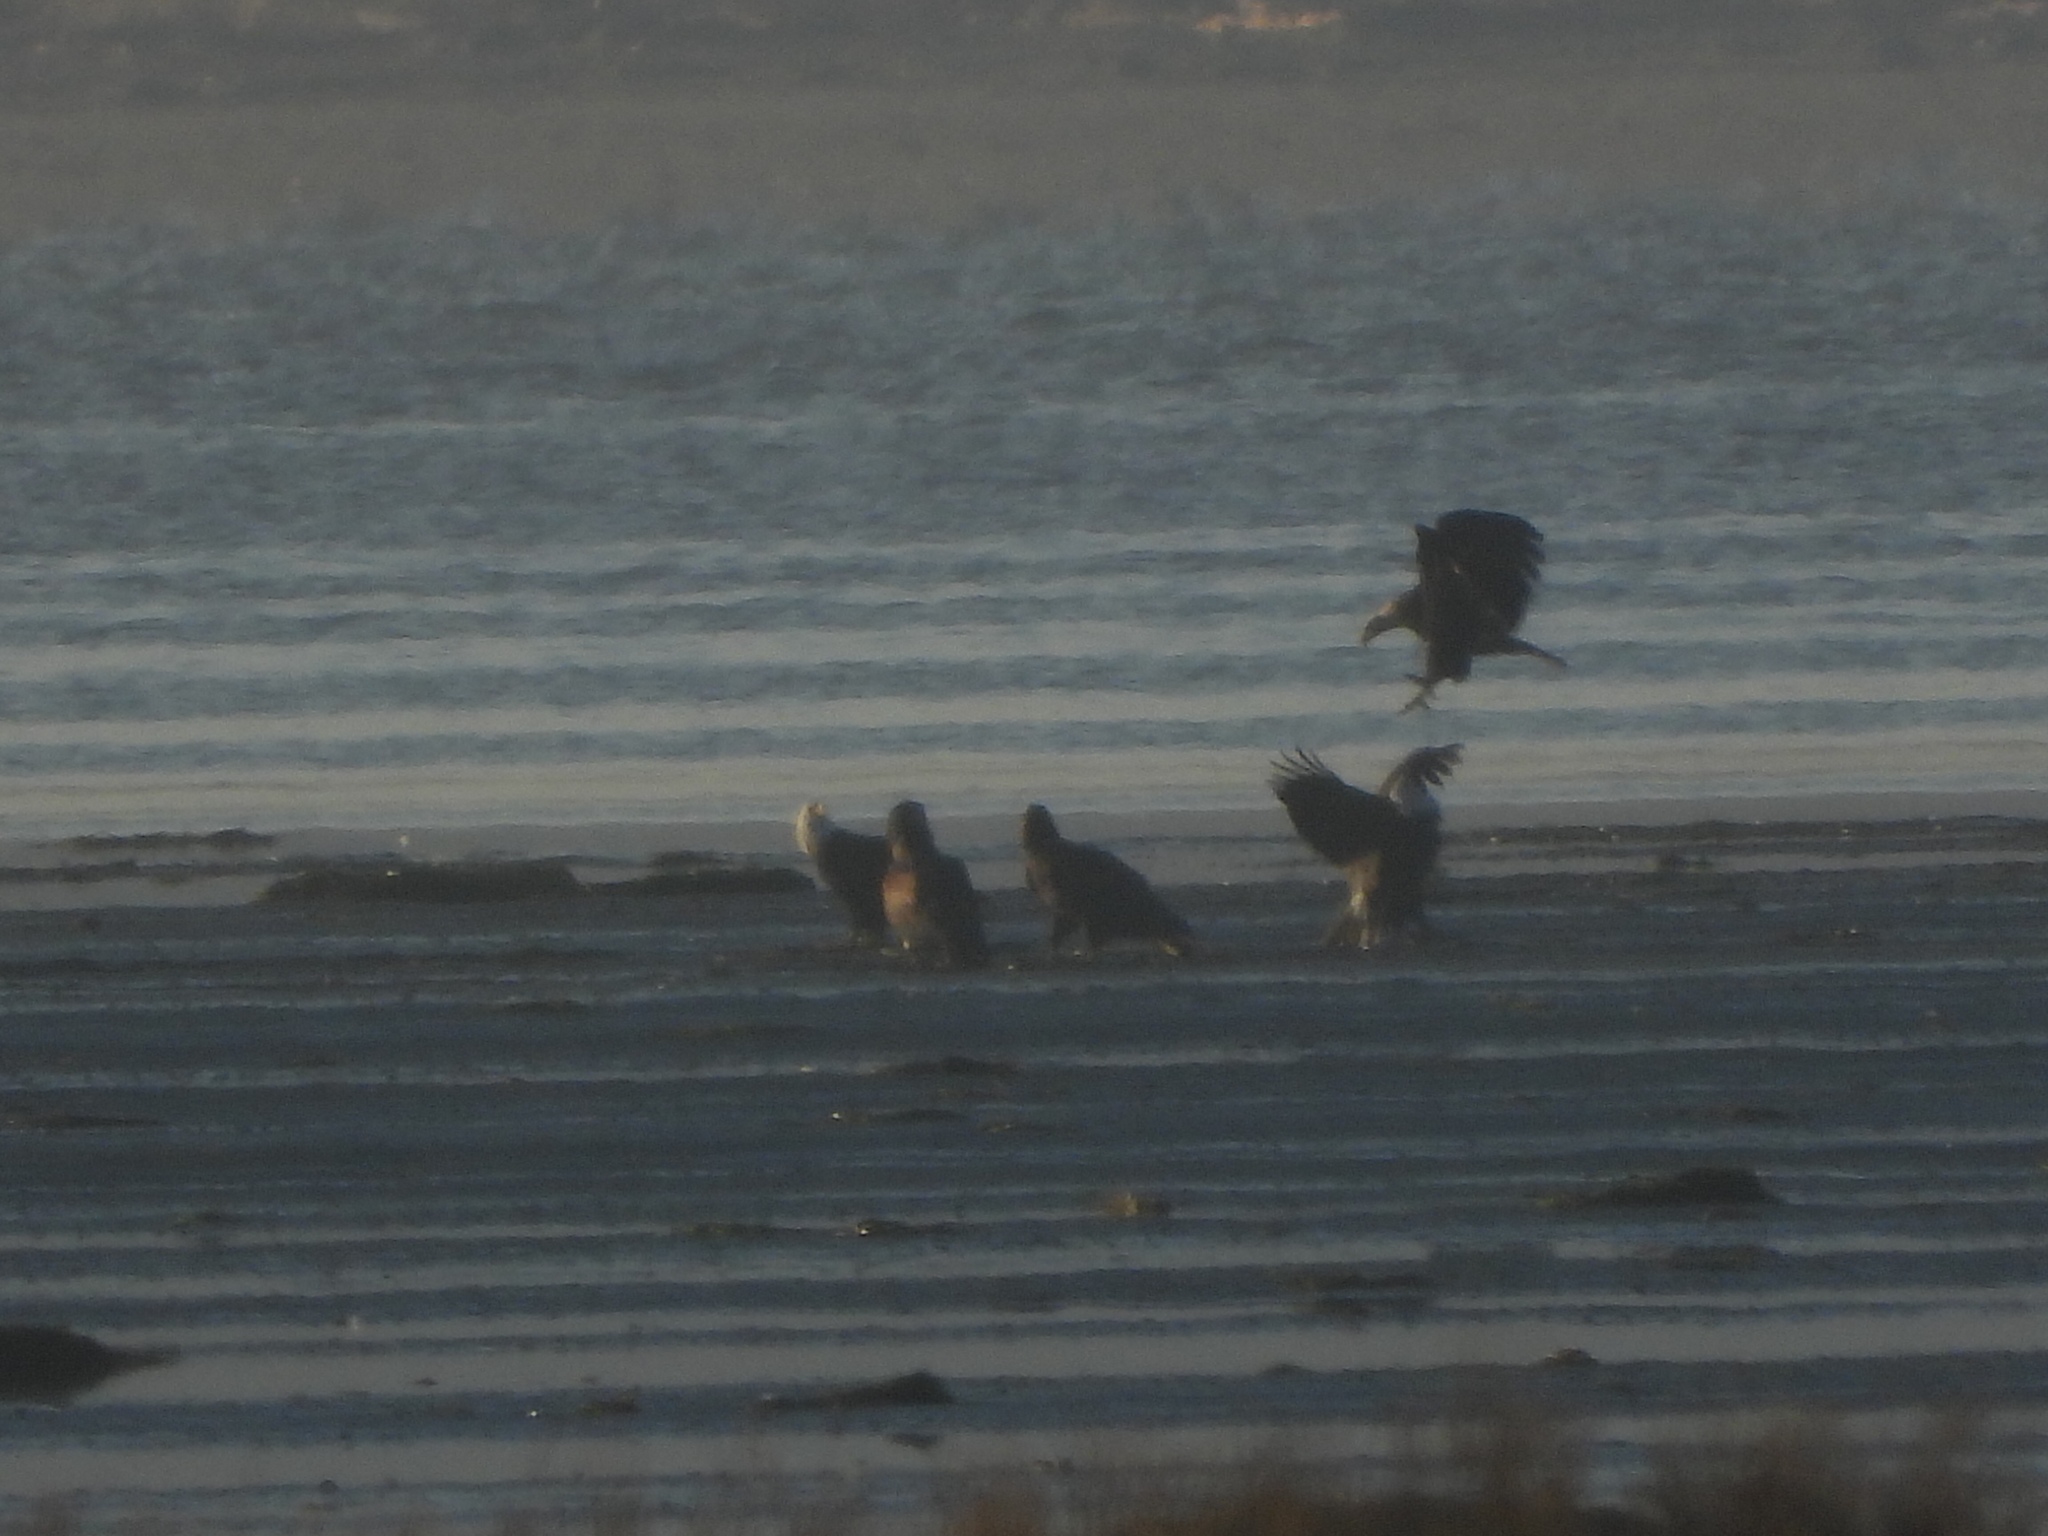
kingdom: Animalia
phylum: Chordata
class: Aves
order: Accipitriformes
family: Accipitridae
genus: Haliaeetus
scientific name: Haliaeetus leucocephalus
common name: Bald eagle
